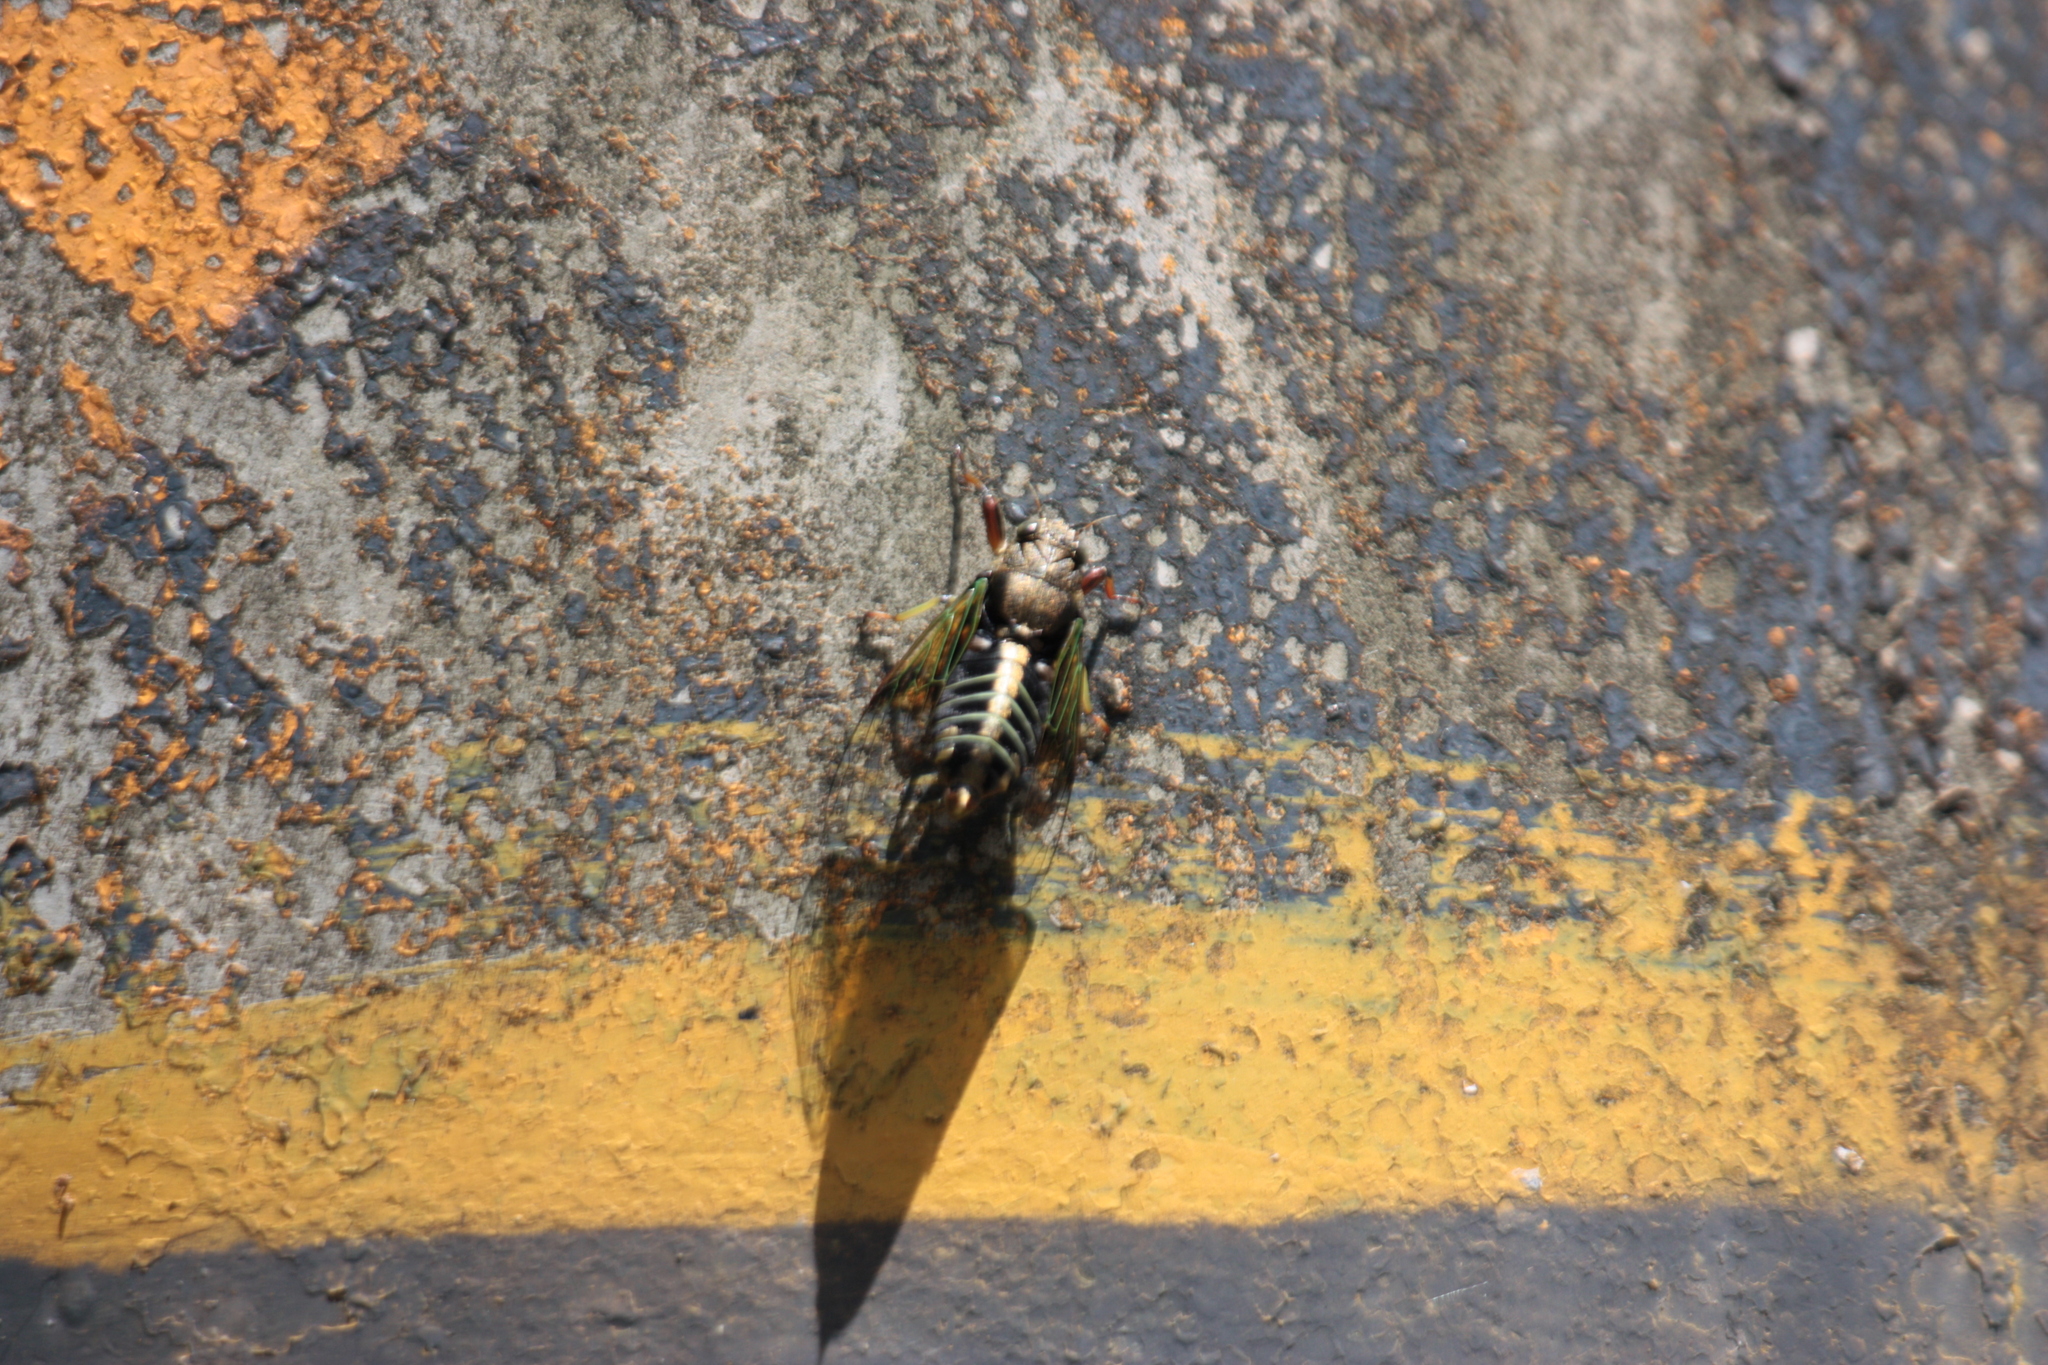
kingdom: Animalia
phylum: Arthropoda
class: Insecta
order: Hemiptera
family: Cicadidae
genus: Mogannia
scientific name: Mogannia formosana
